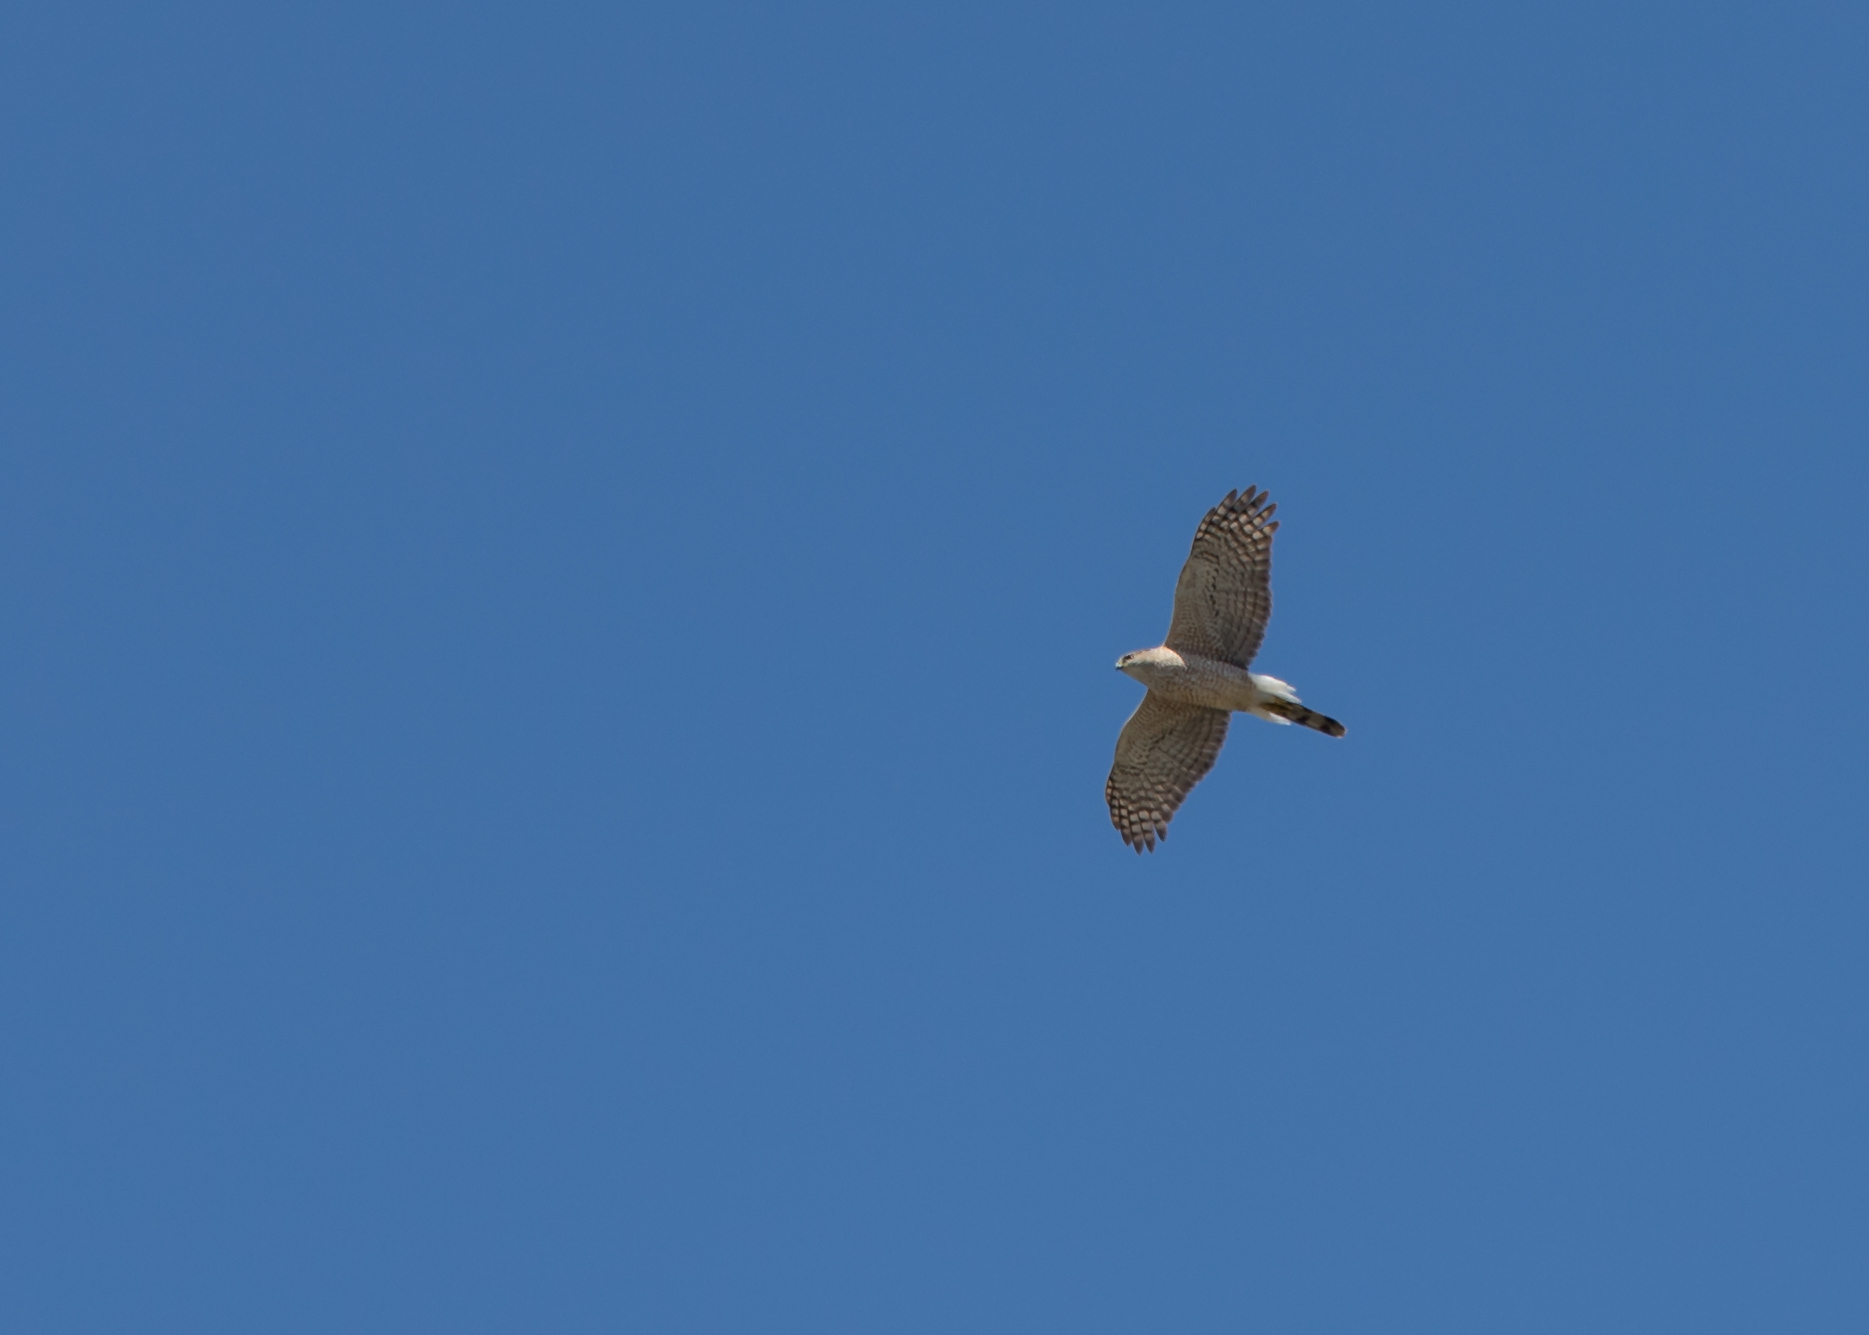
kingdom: Animalia
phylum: Chordata
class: Aves
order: Accipitriformes
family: Accipitridae
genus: Accipiter
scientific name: Accipiter cooperii
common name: Cooper's hawk
